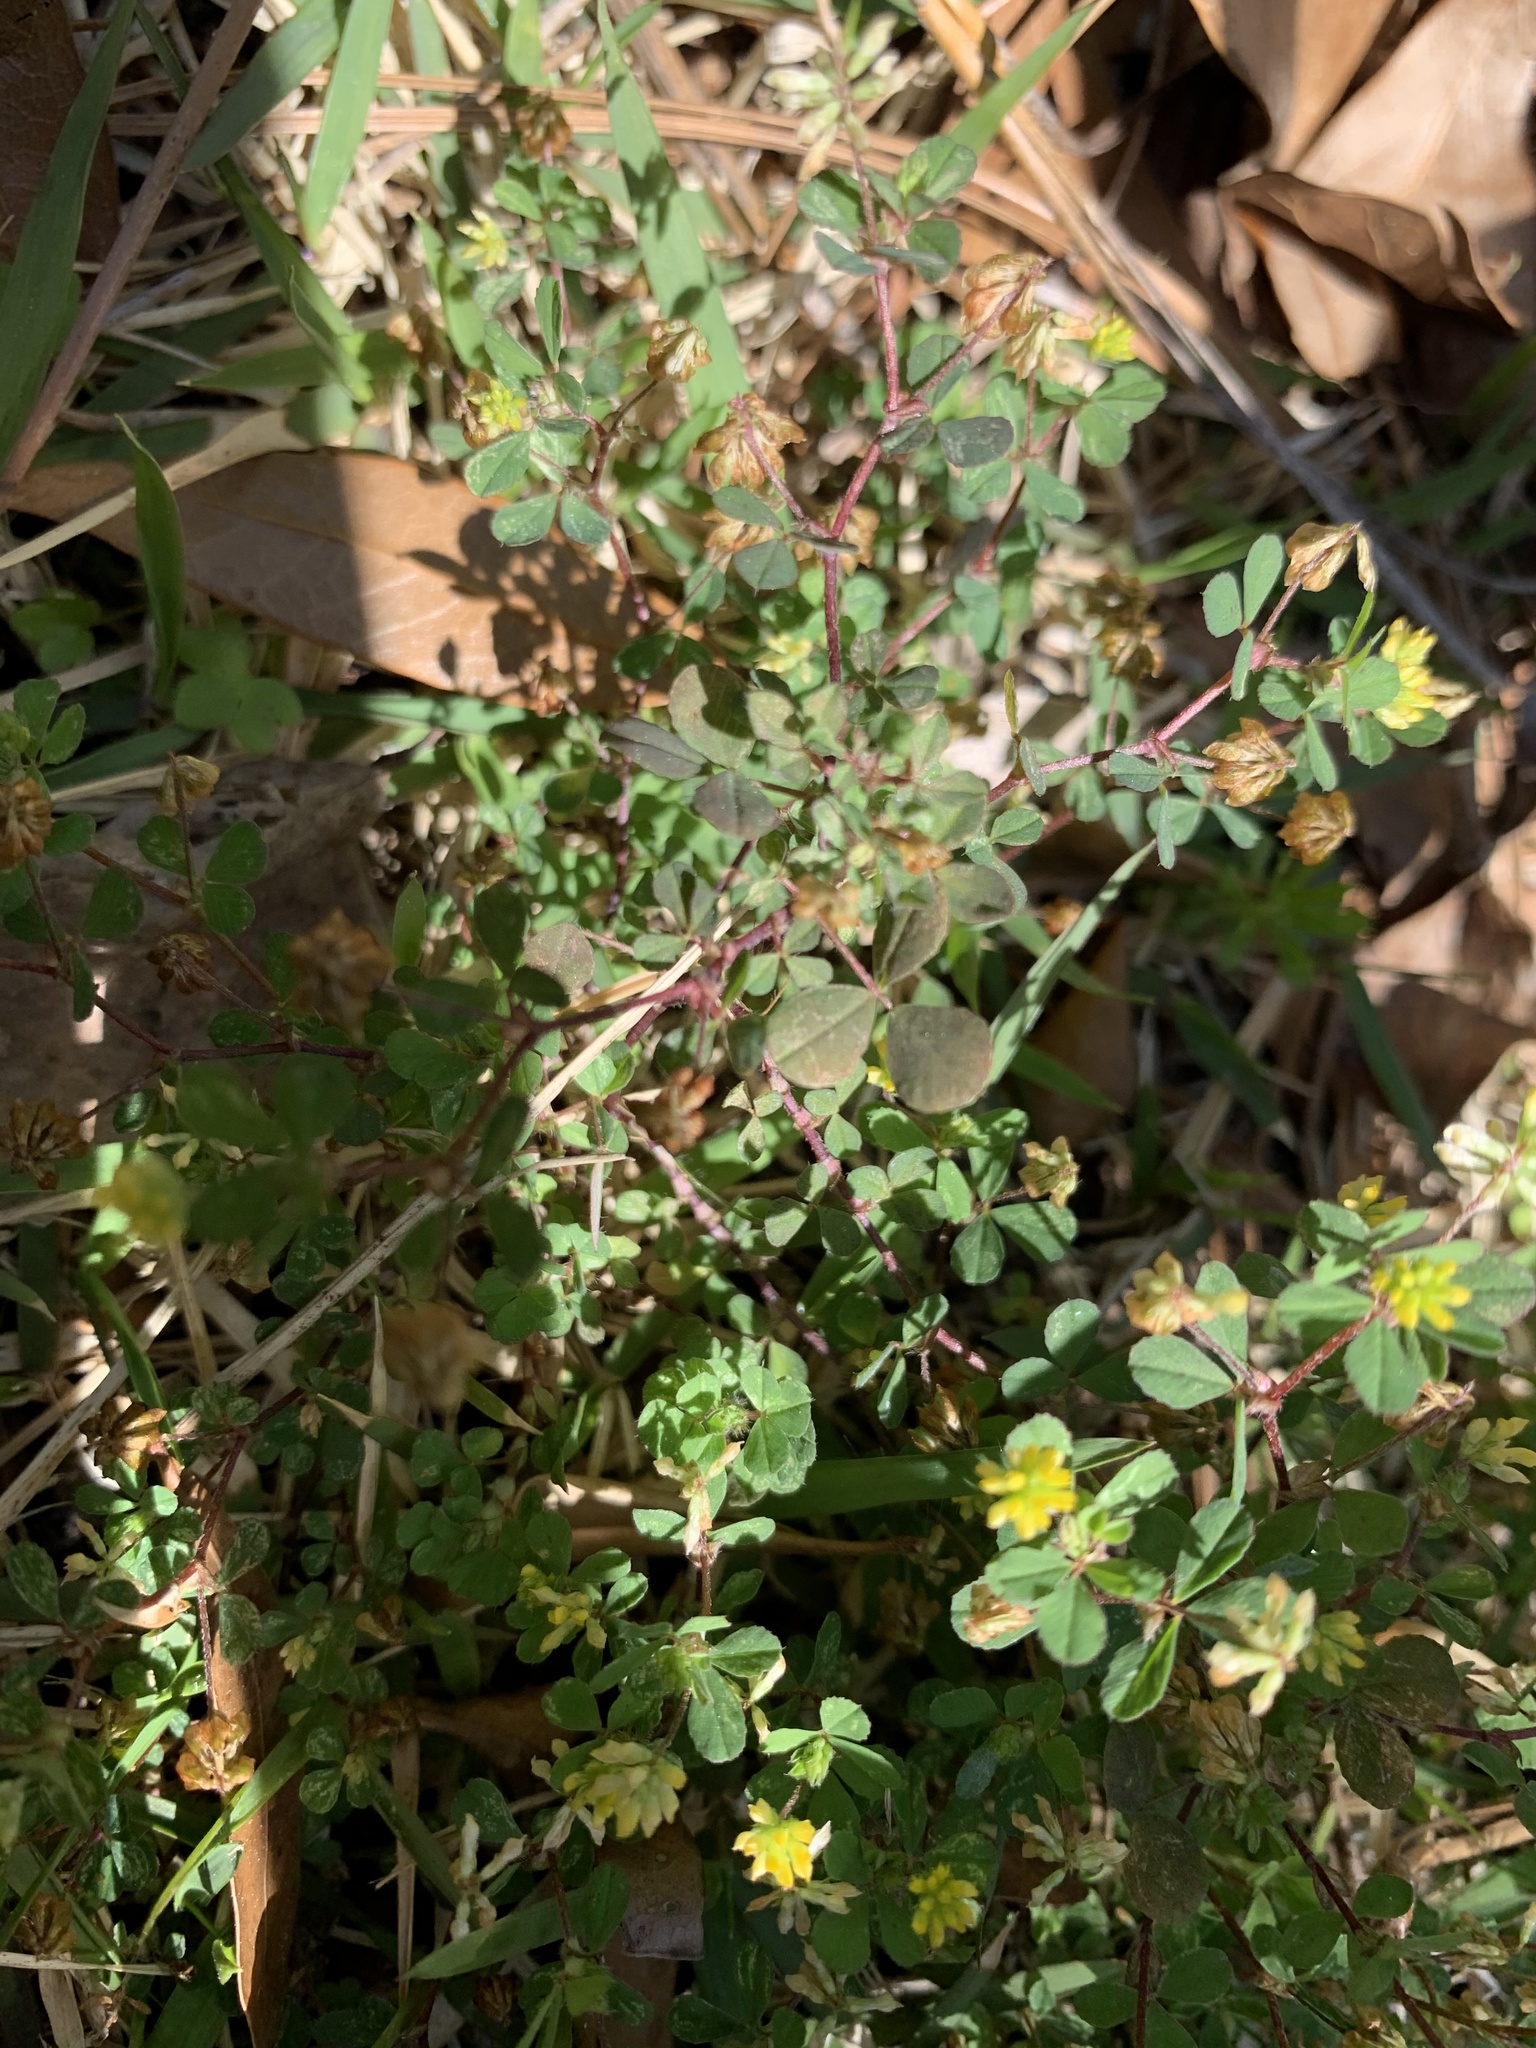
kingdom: Plantae
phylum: Tracheophyta
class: Magnoliopsida
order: Fabales
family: Fabaceae
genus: Trifolium
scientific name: Trifolium dubium
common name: Suckling clover
